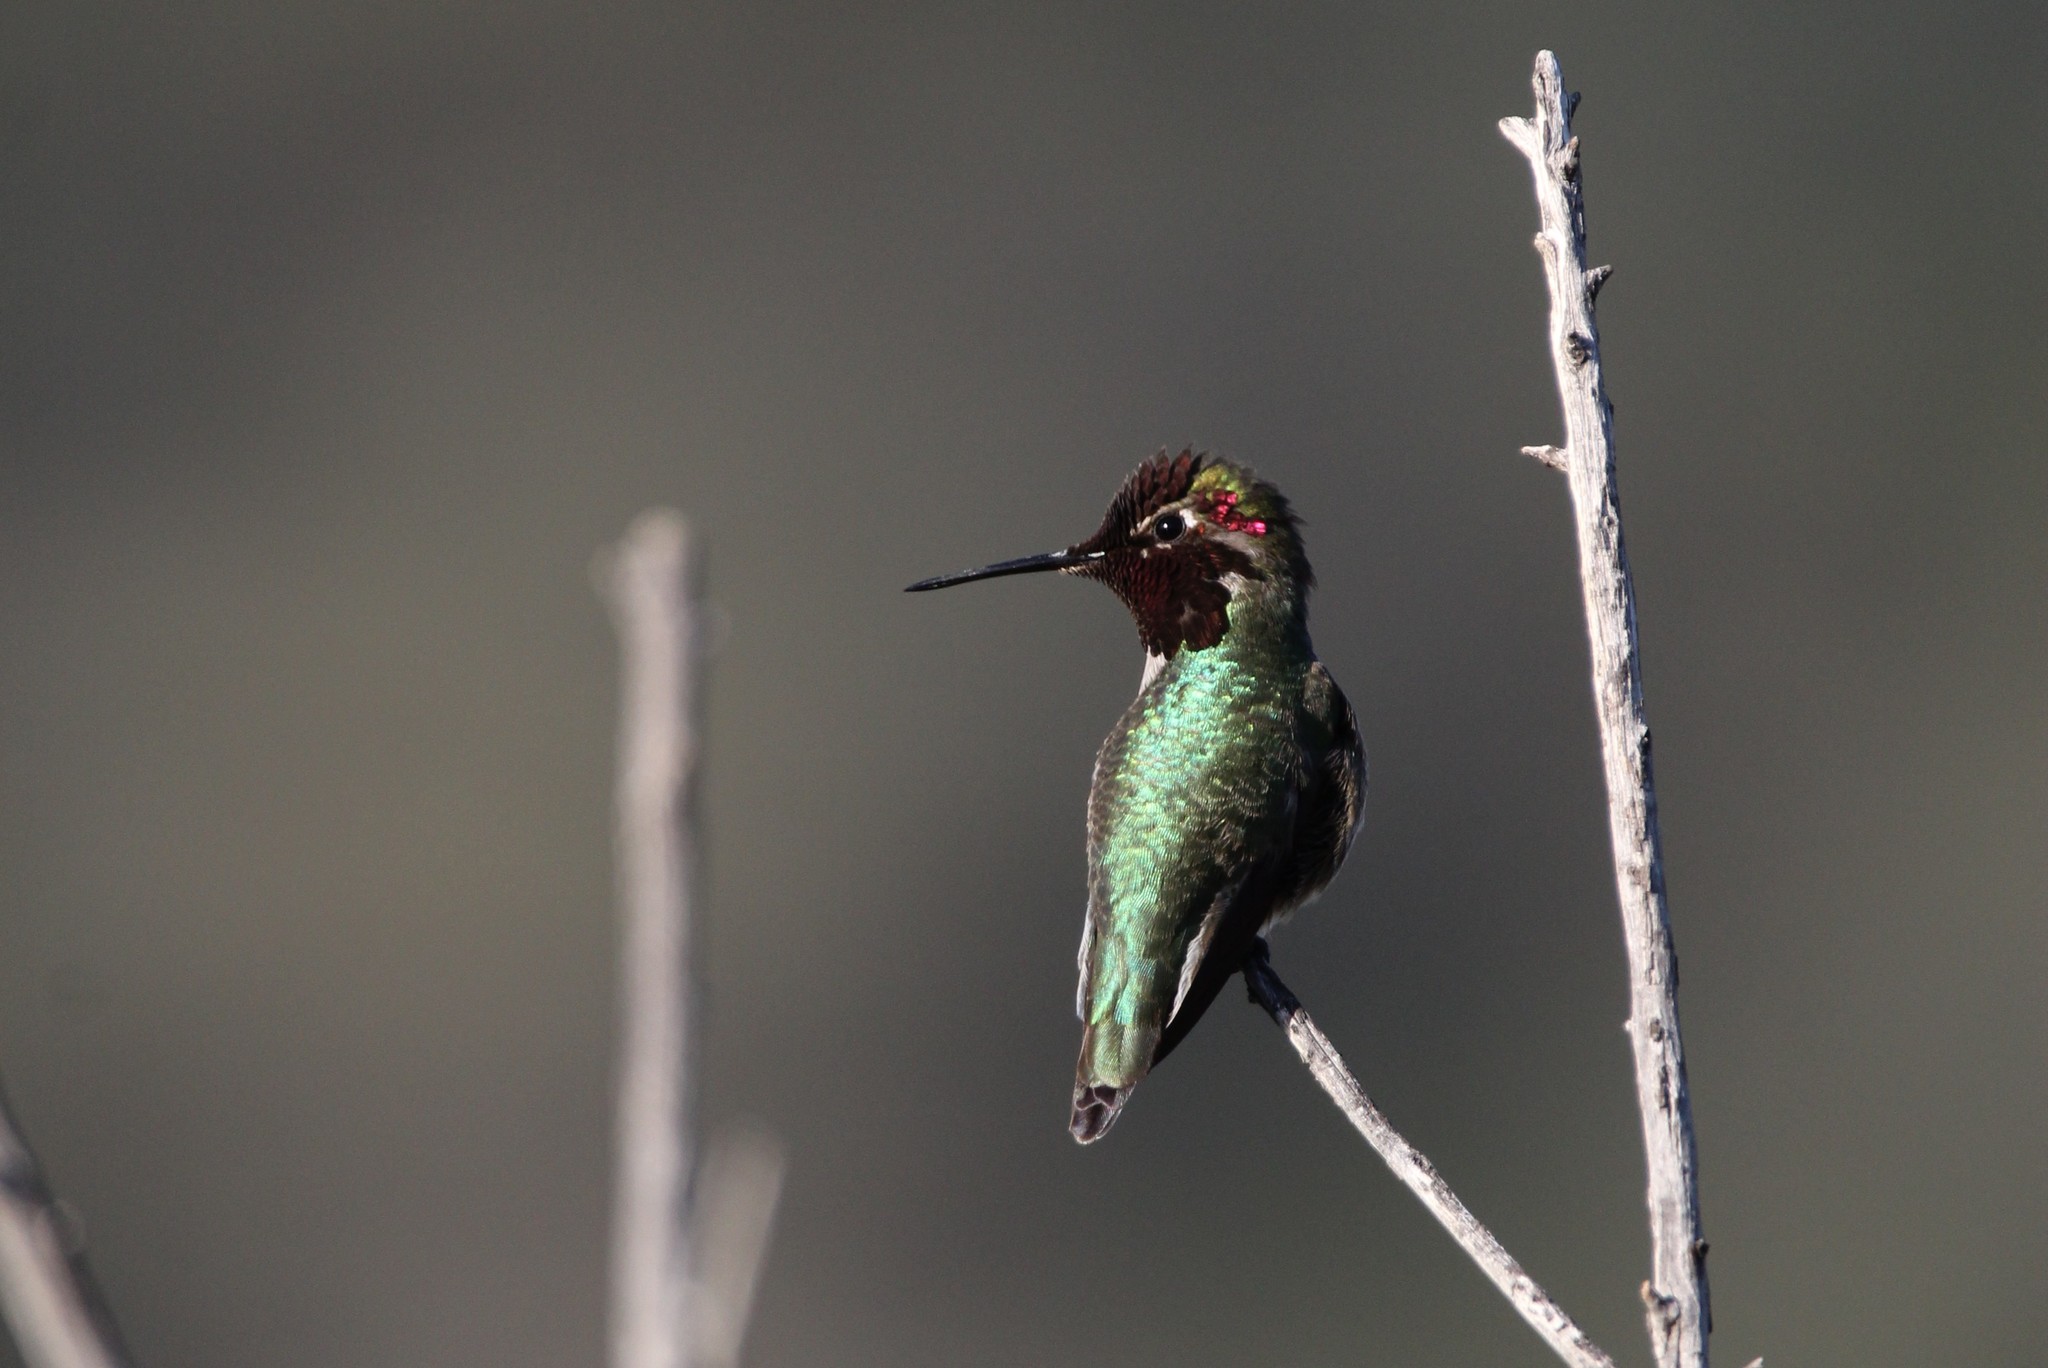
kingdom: Animalia
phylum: Chordata
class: Aves
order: Apodiformes
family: Trochilidae
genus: Calypte
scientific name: Calypte anna
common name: Anna's hummingbird
